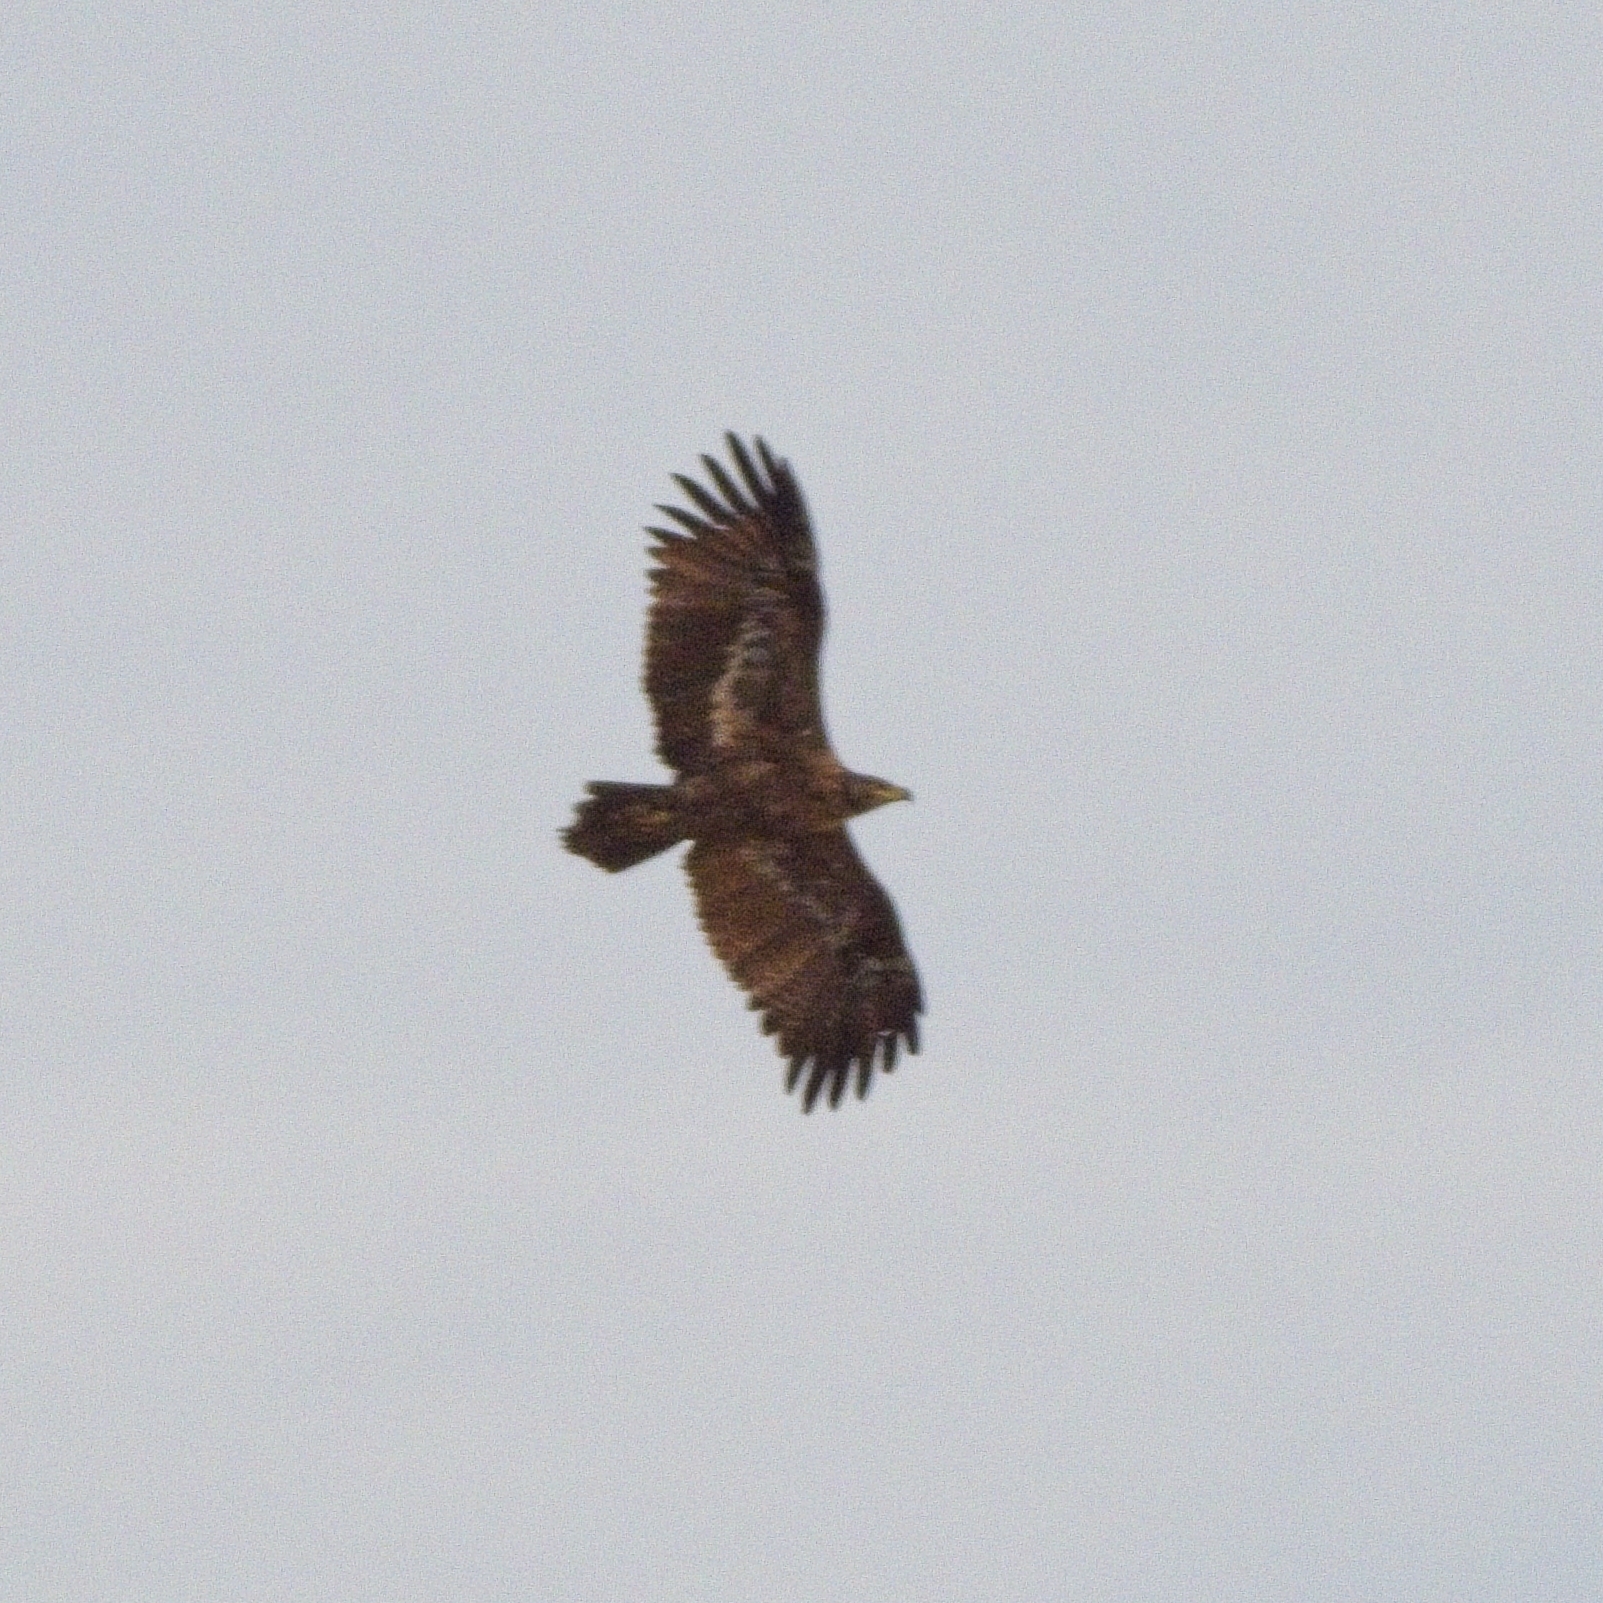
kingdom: Animalia
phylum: Chordata
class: Aves
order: Accipitriformes
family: Accipitridae
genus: Aquila
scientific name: Aquila nipalensis
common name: Steppe eagle
